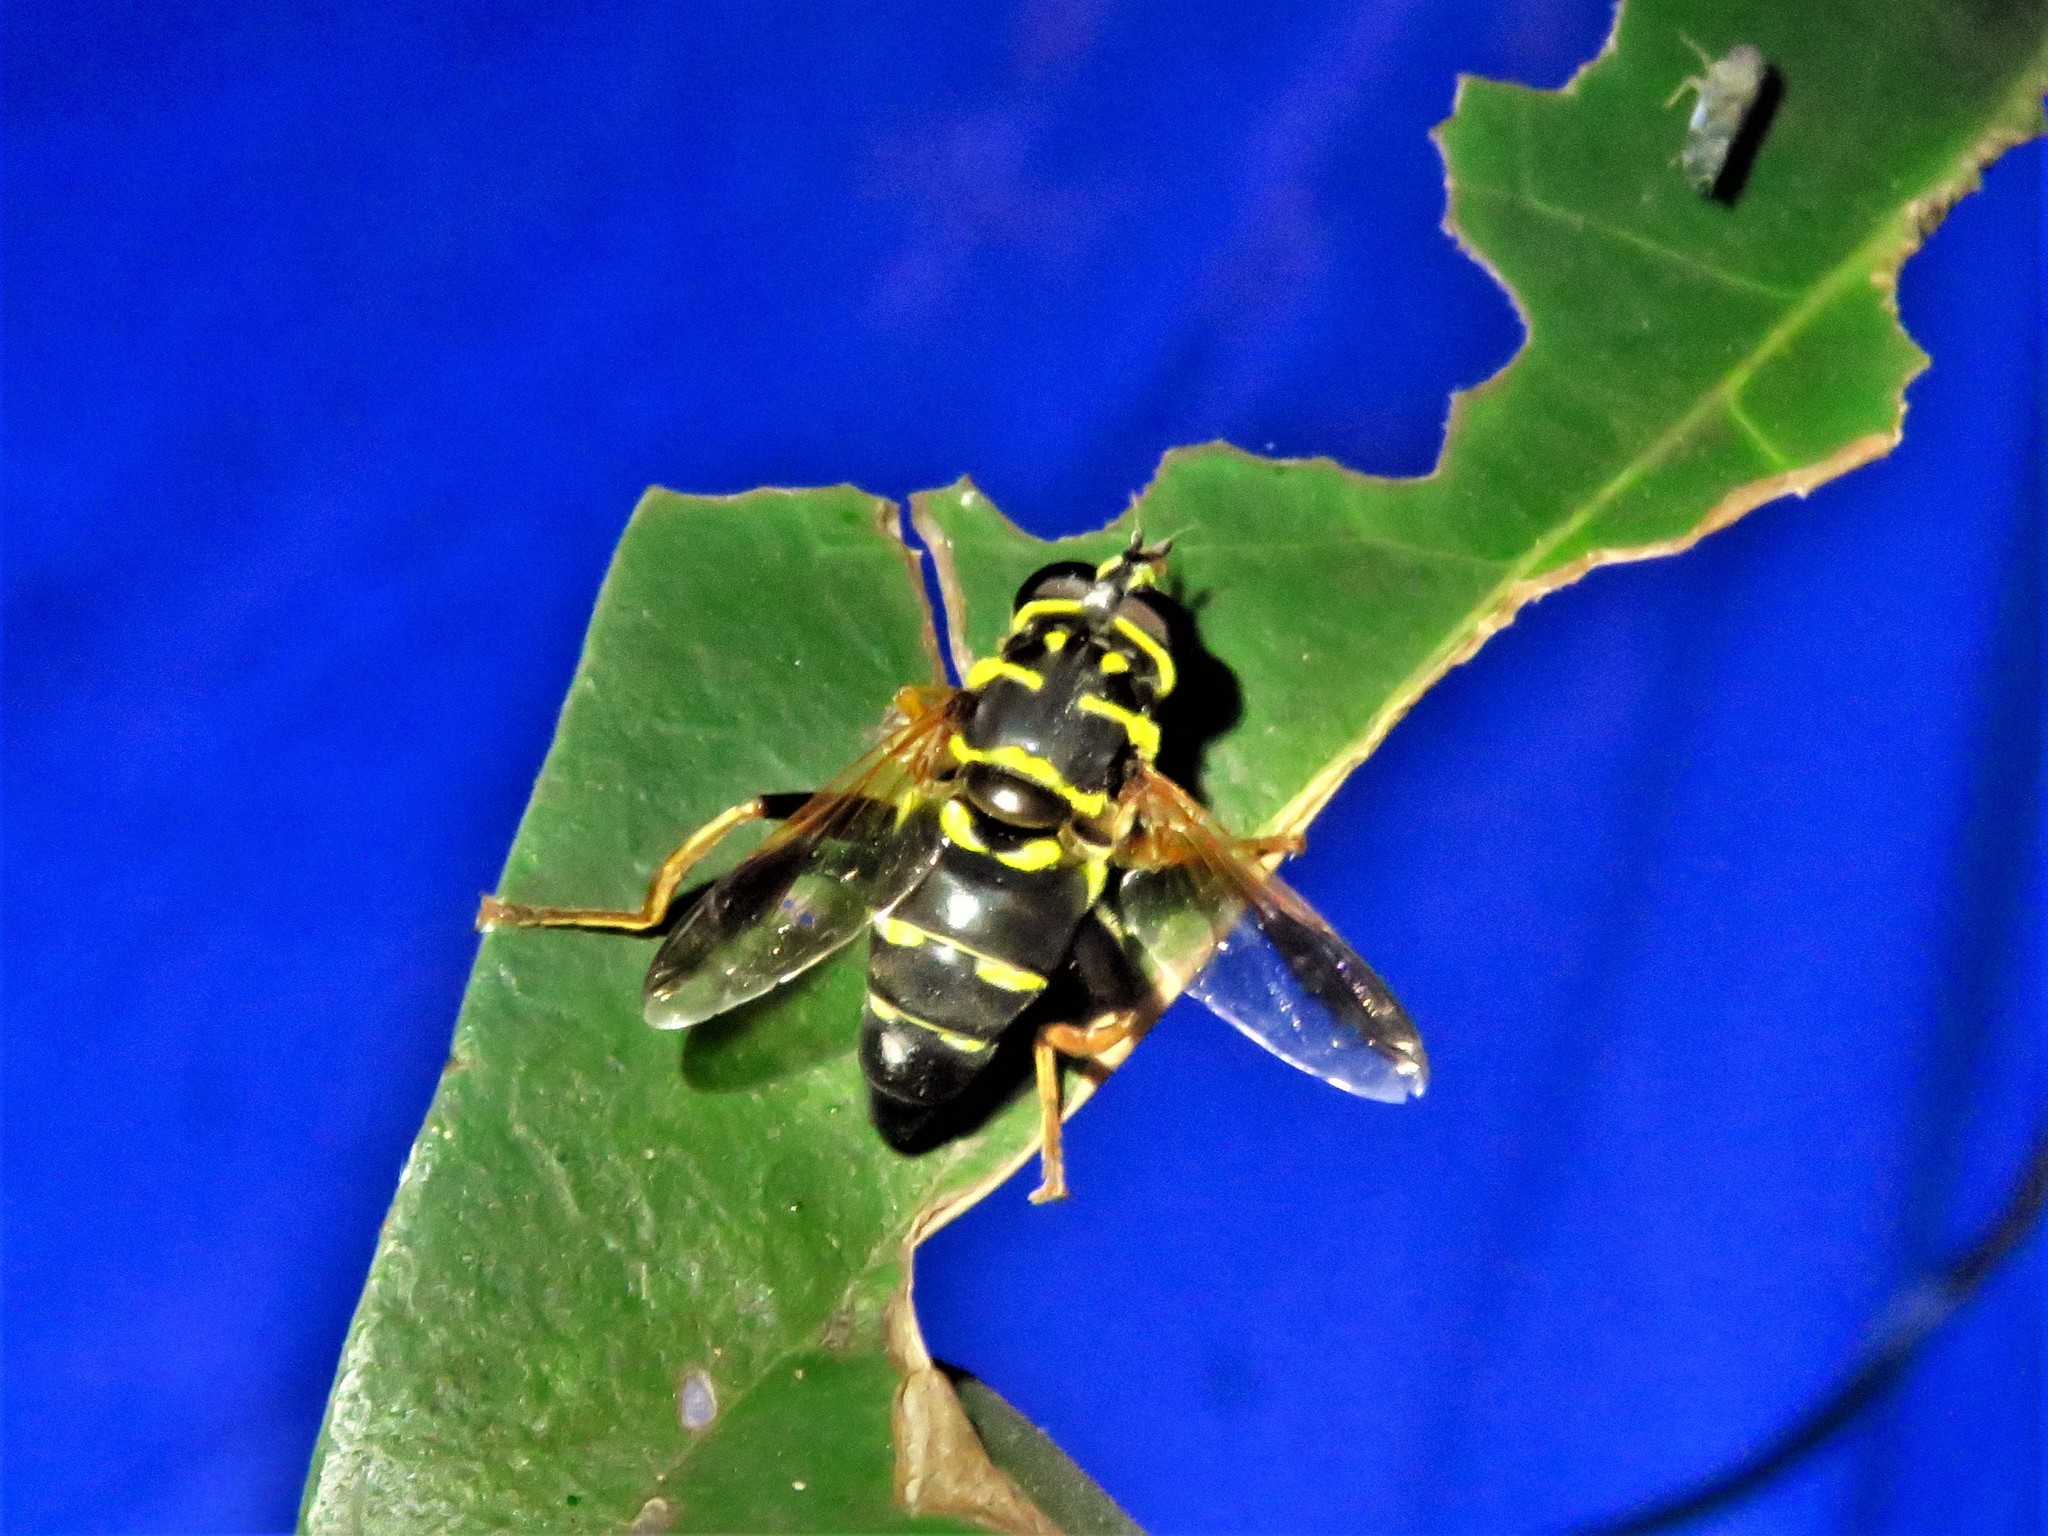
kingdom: Animalia
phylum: Arthropoda
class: Insecta
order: Diptera
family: Syrphidae
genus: Meromacrus
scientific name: Meromacrus acutus
